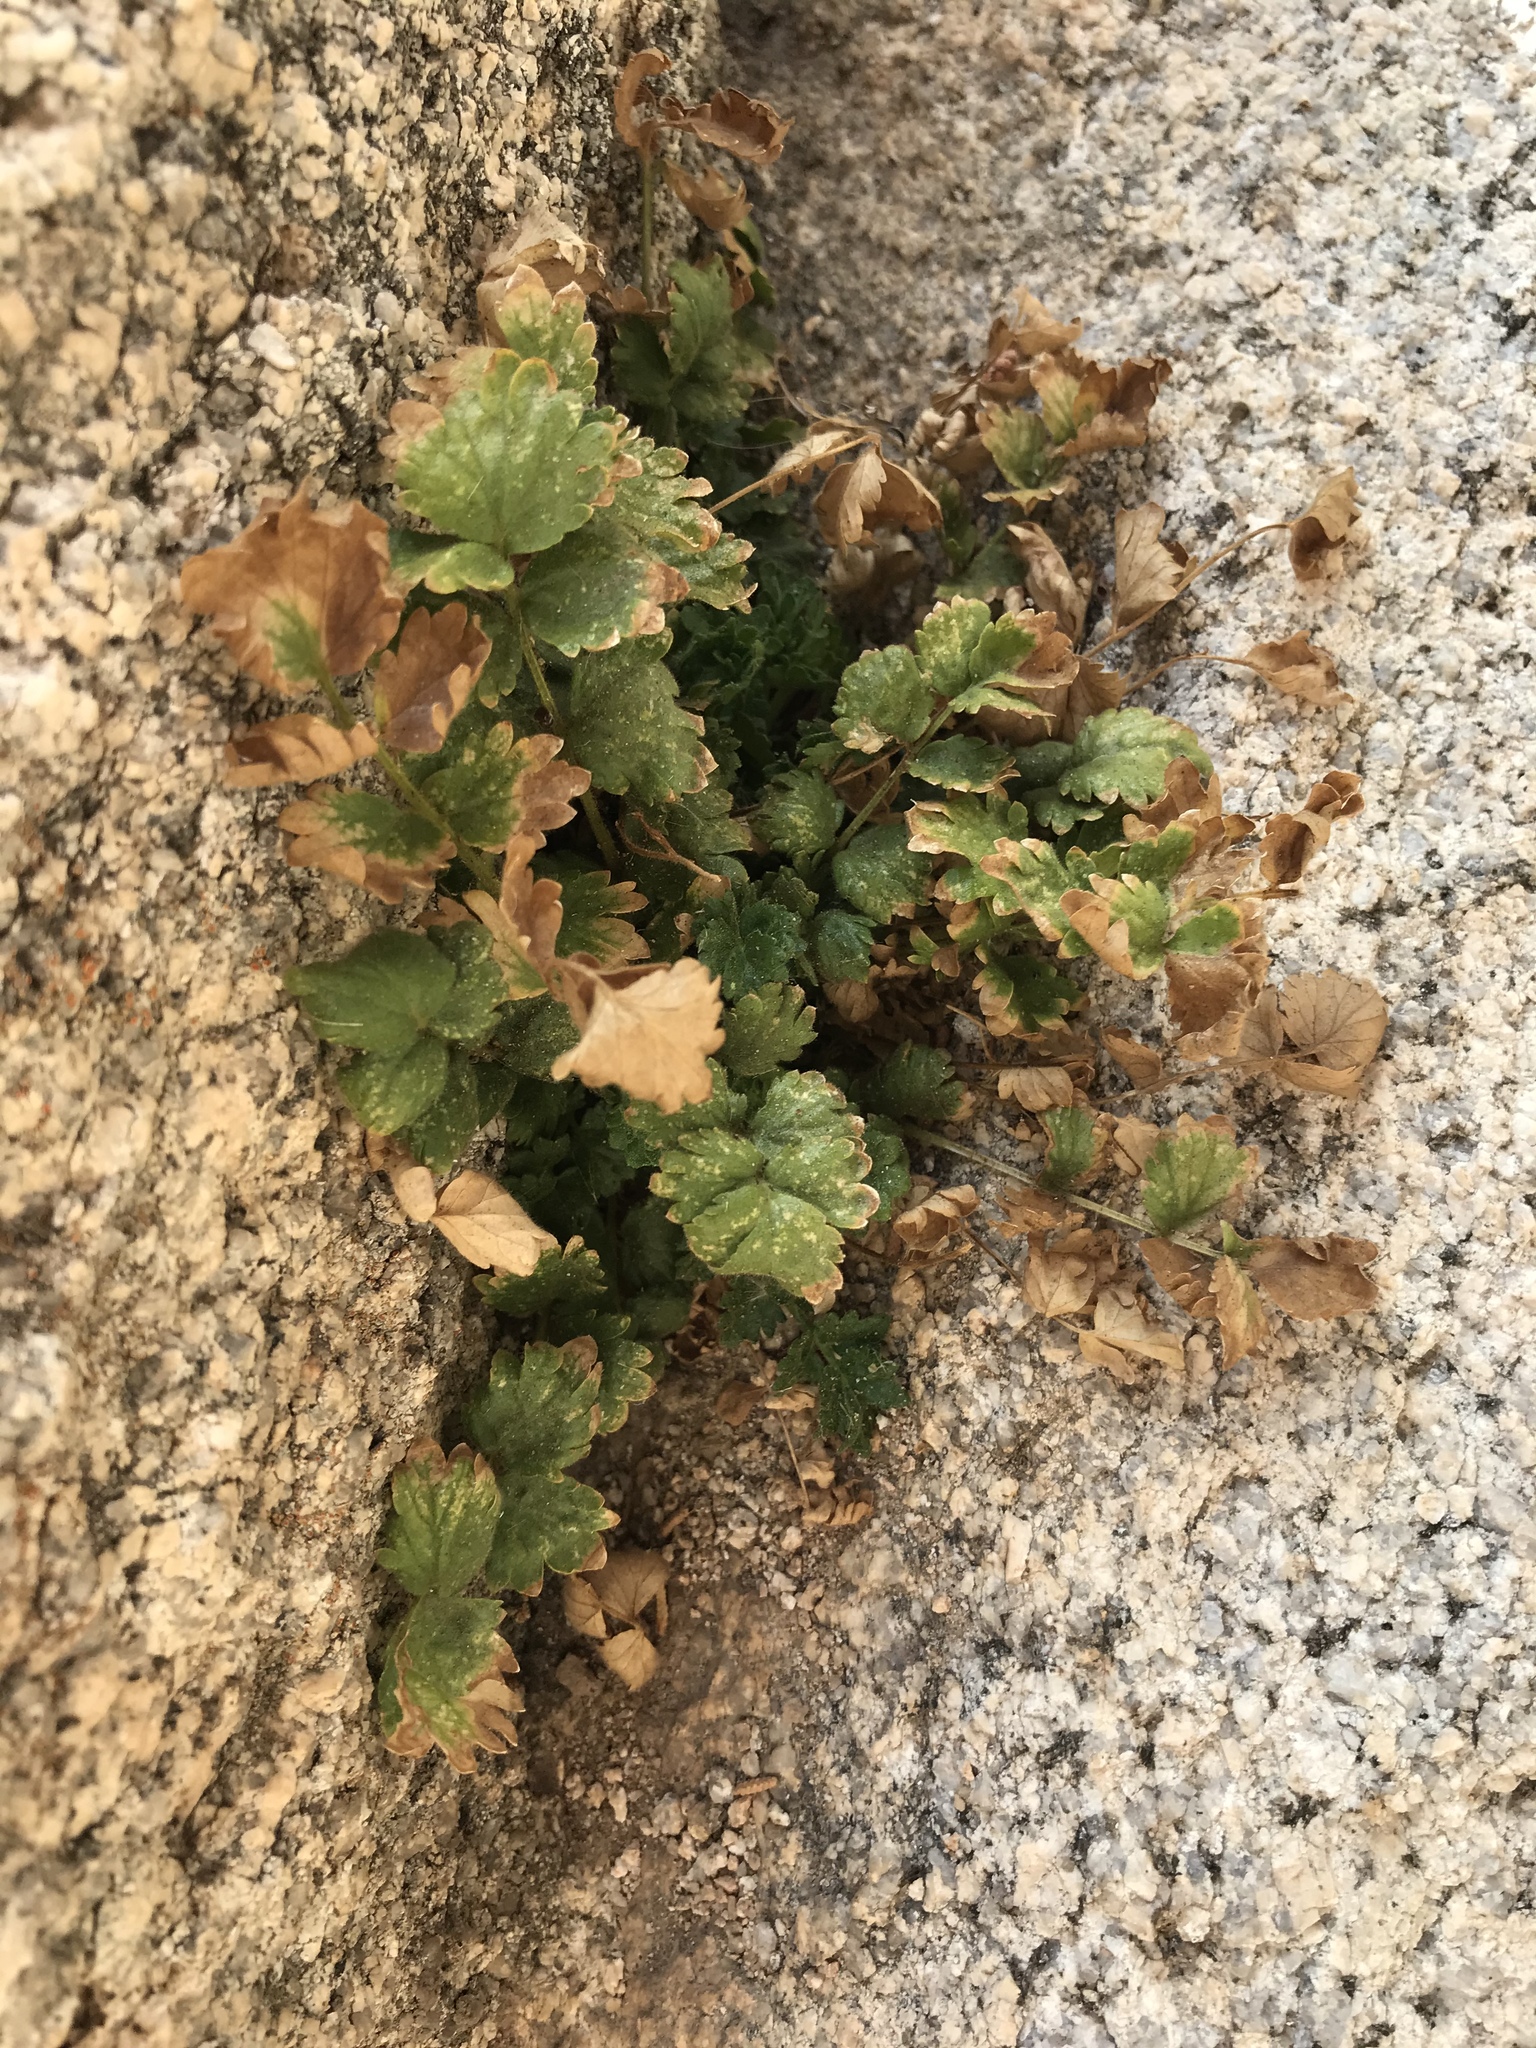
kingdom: Plantae
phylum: Tracheophyta
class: Magnoliopsida
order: Rosales
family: Rosaceae
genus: Potentilla
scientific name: Potentilla saxosa
